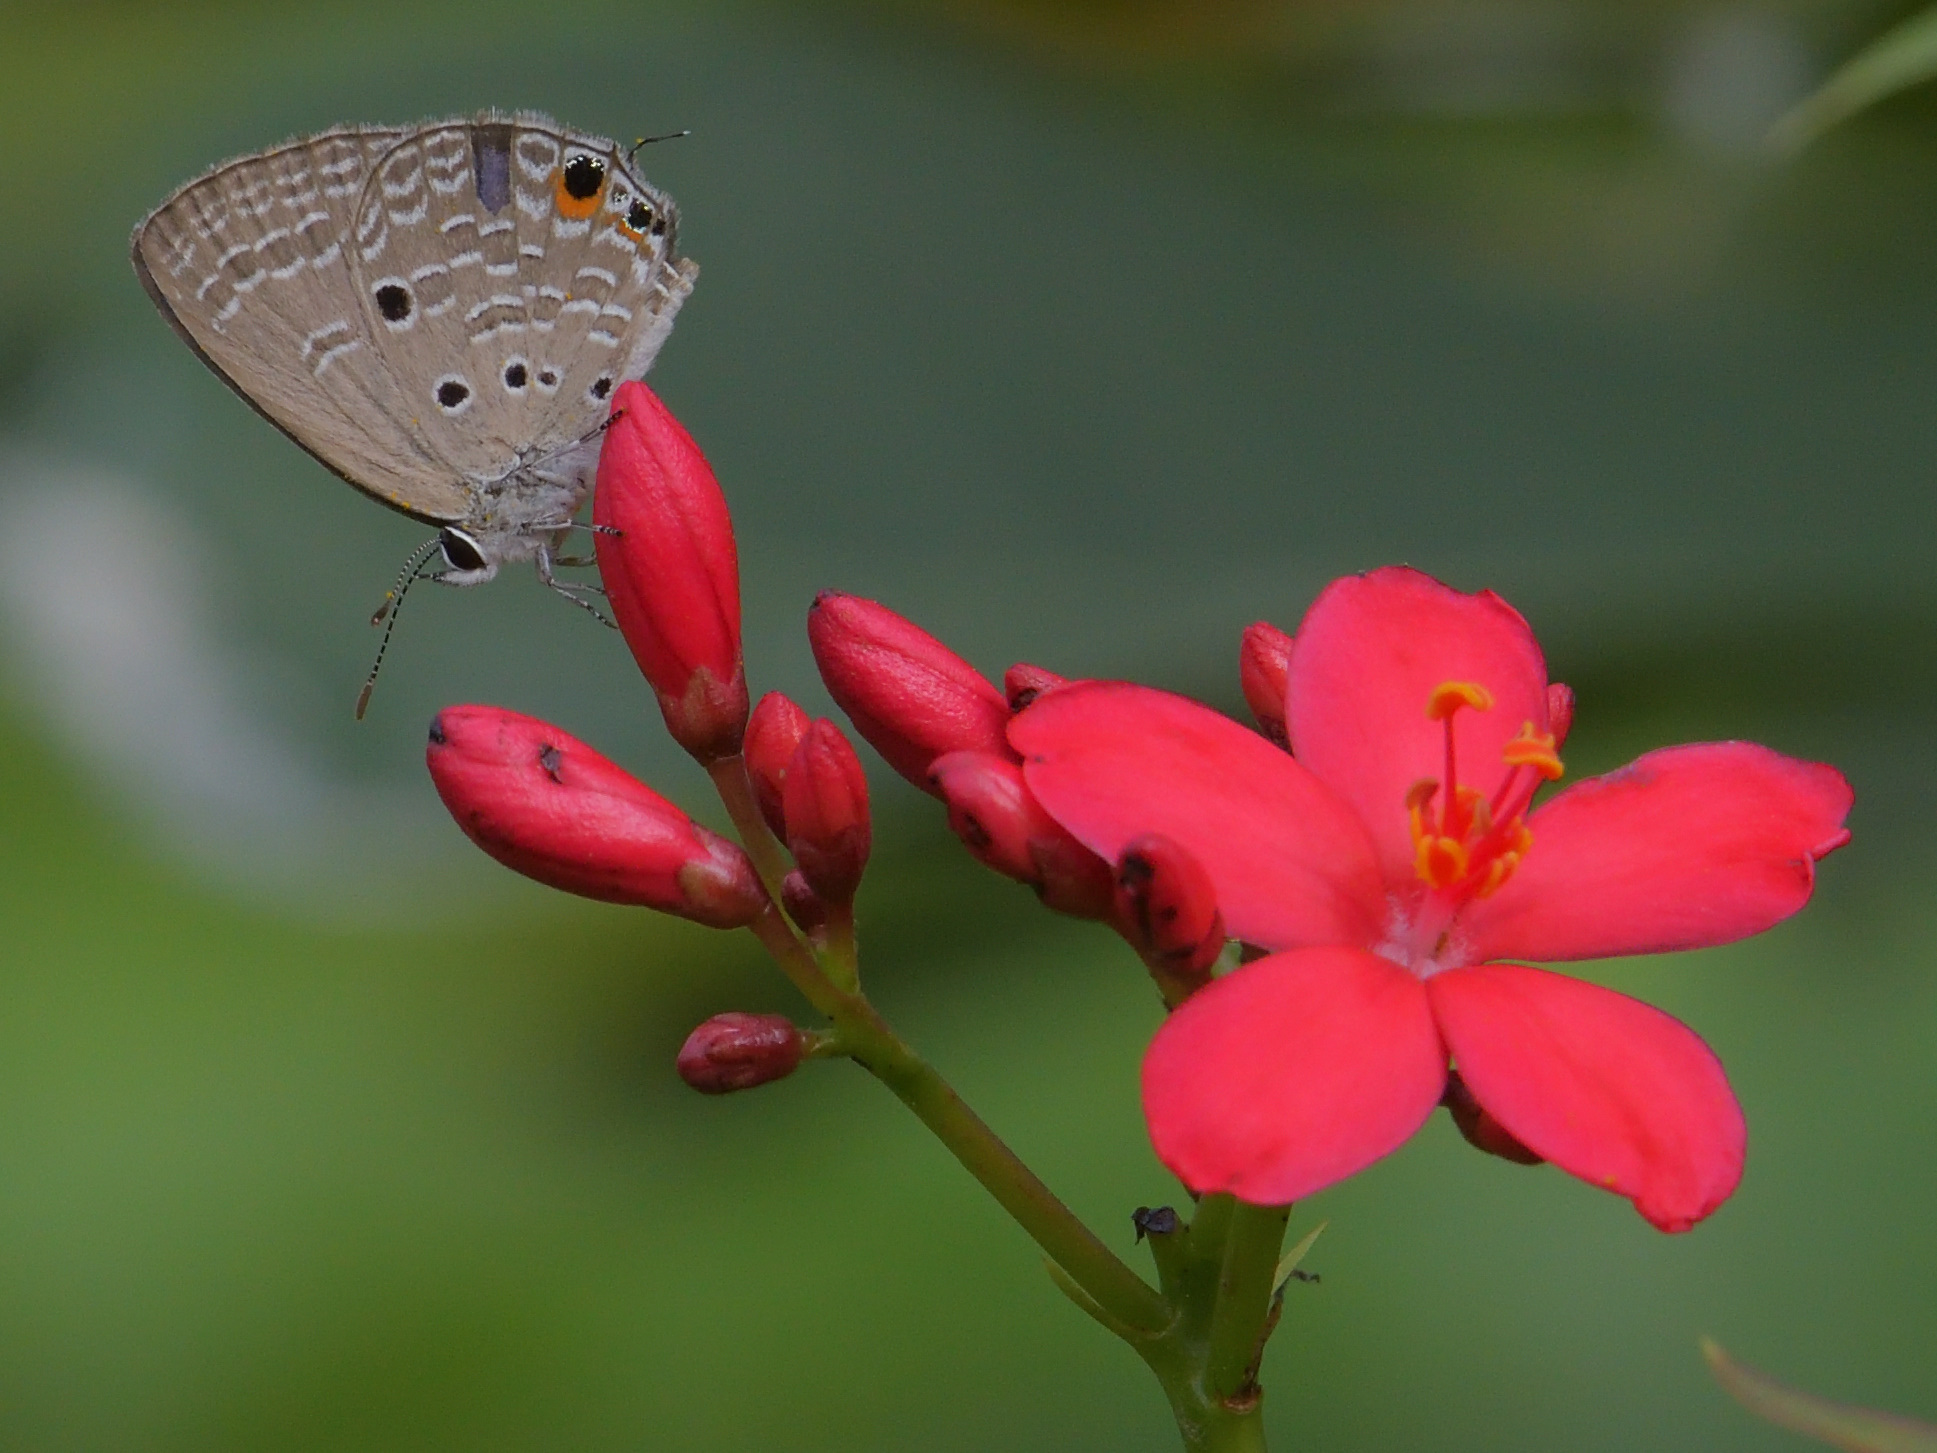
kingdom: Animalia
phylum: Arthropoda
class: Insecta
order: Lepidoptera
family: Lycaenidae
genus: Luthrodes
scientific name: Luthrodes pandava
